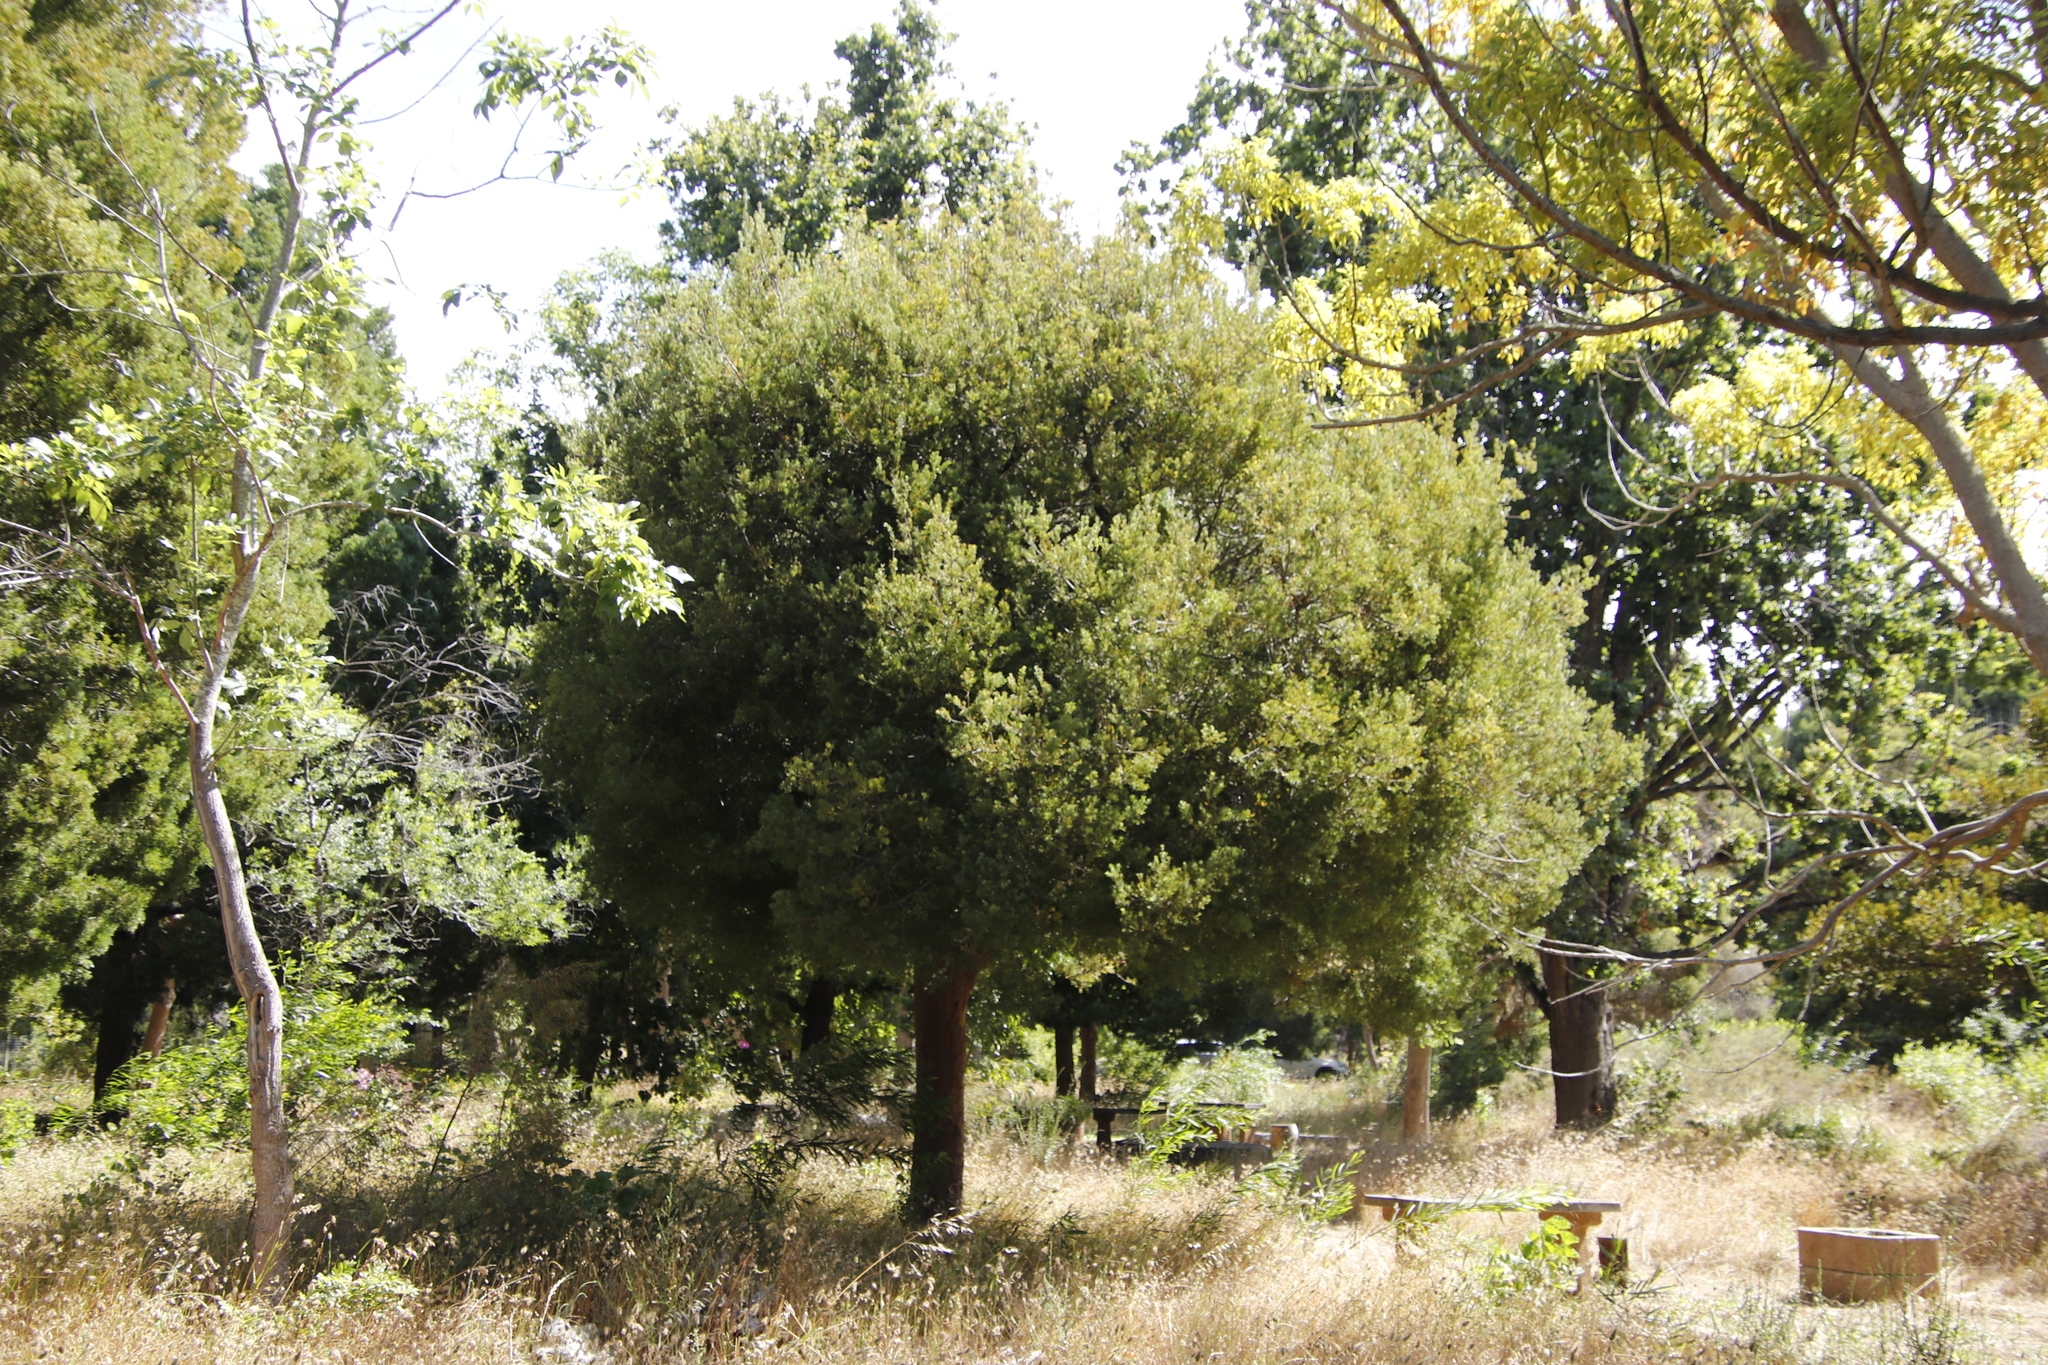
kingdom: Plantae
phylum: Tracheophyta
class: Pinopsida
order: Pinales
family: Podocarpaceae
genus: Afrocarpus
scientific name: Afrocarpus falcatus
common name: Bastard yellowwood
